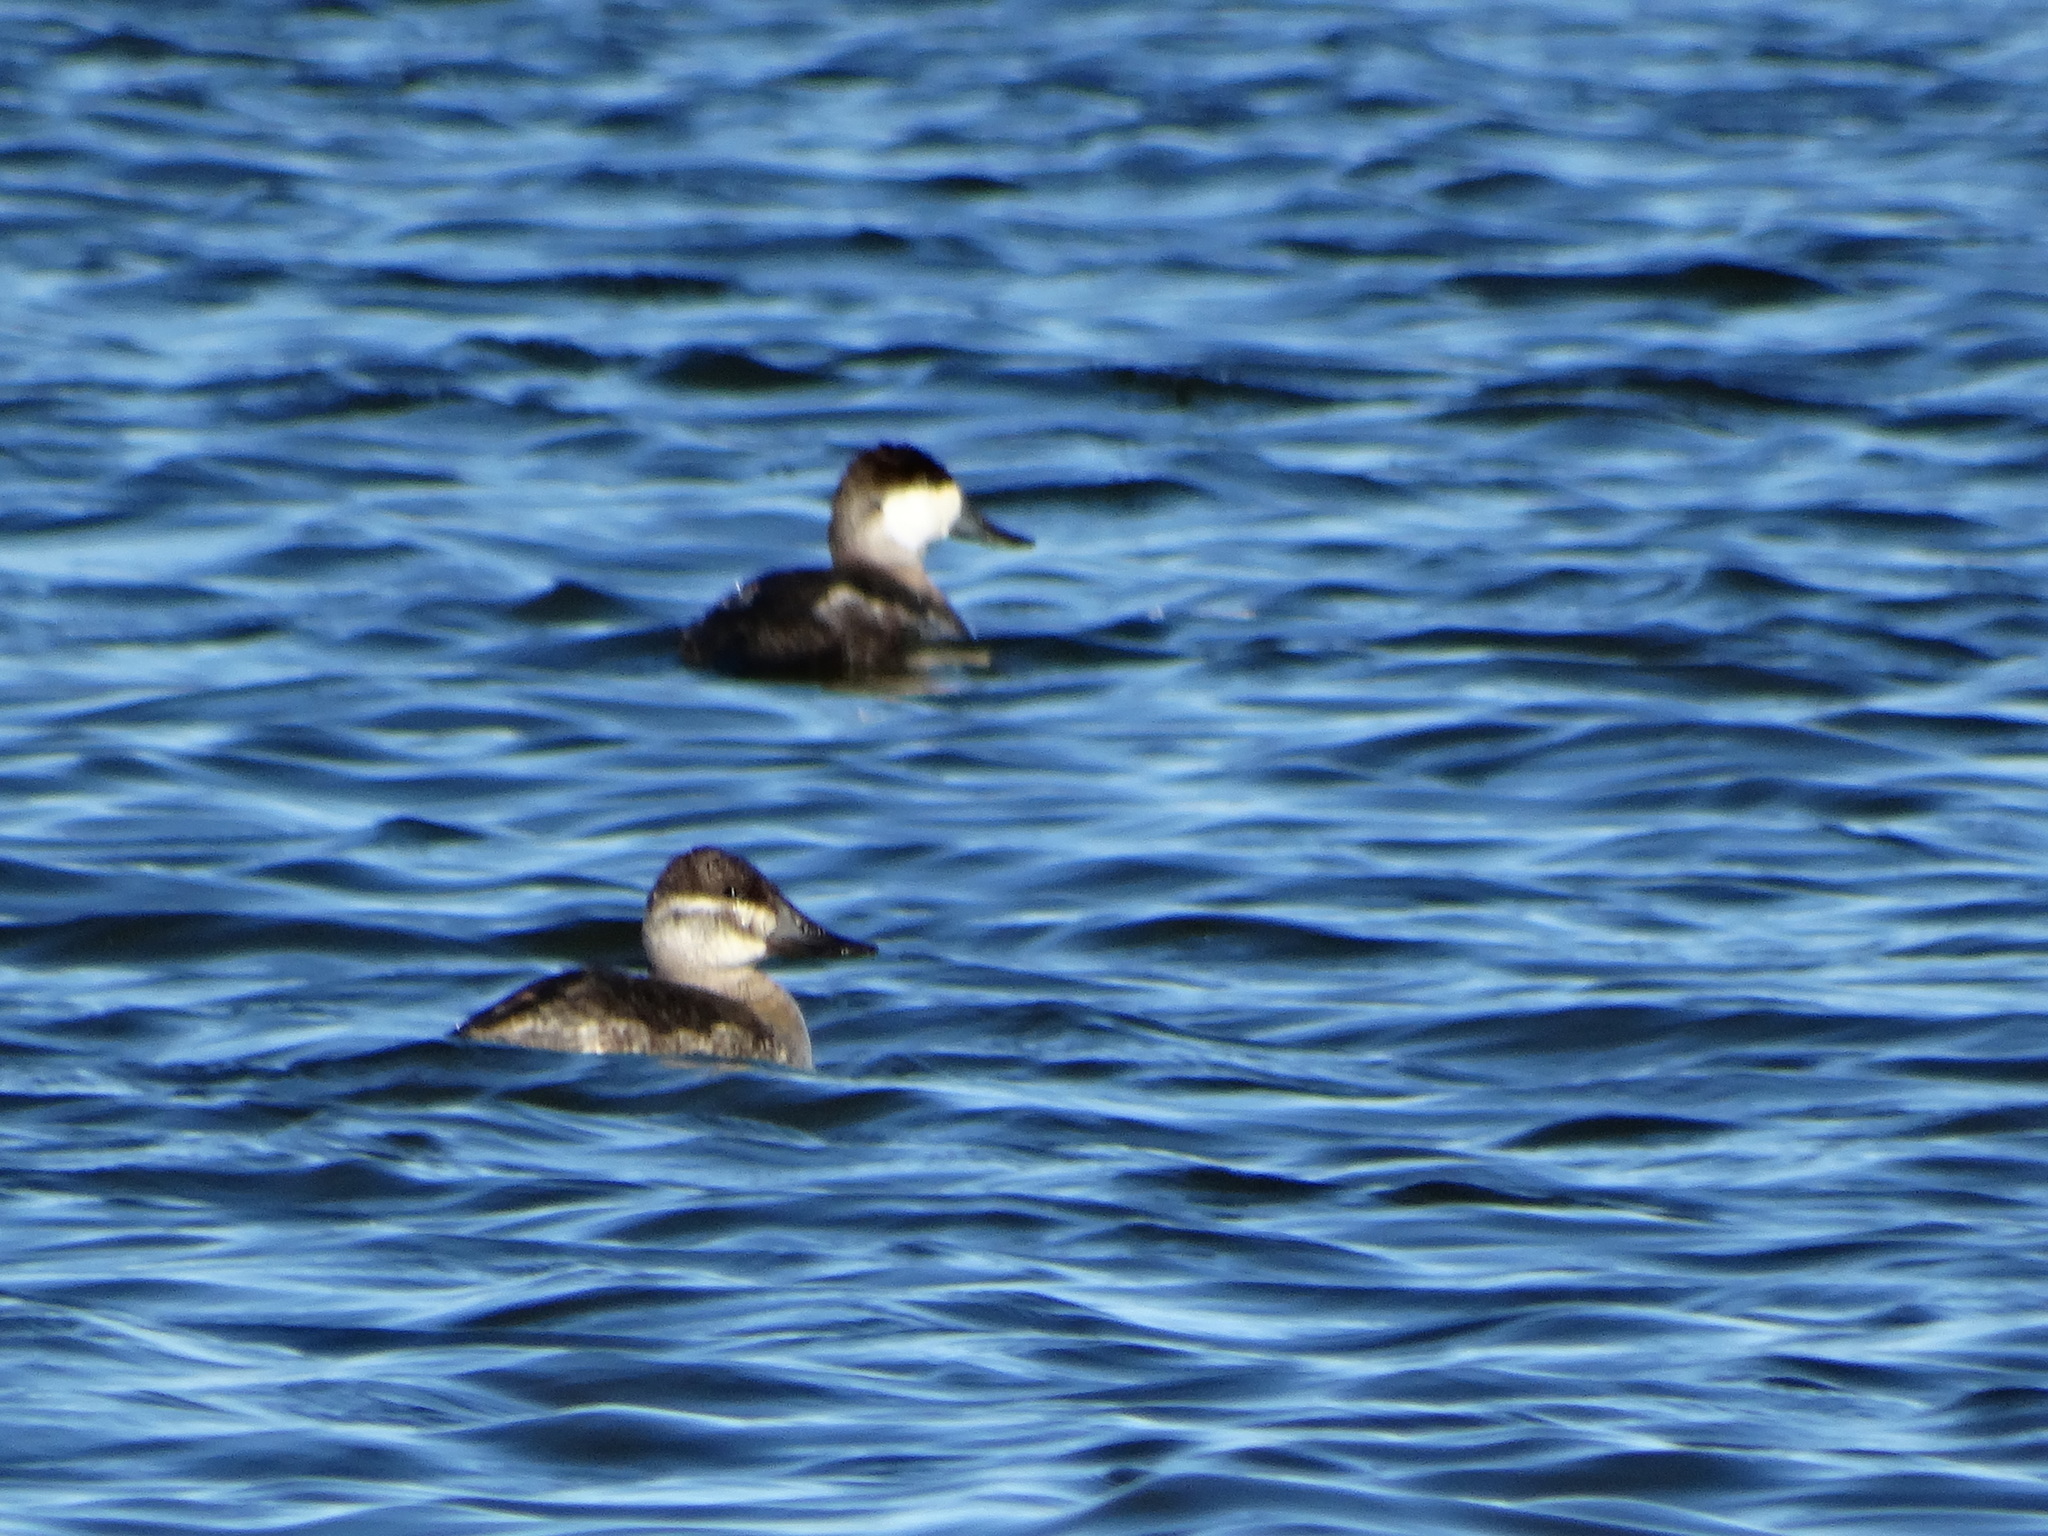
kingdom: Animalia
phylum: Chordata
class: Aves
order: Anseriformes
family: Anatidae
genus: Oxyura
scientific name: Oxyura jamaicensis
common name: Ruddy duck
